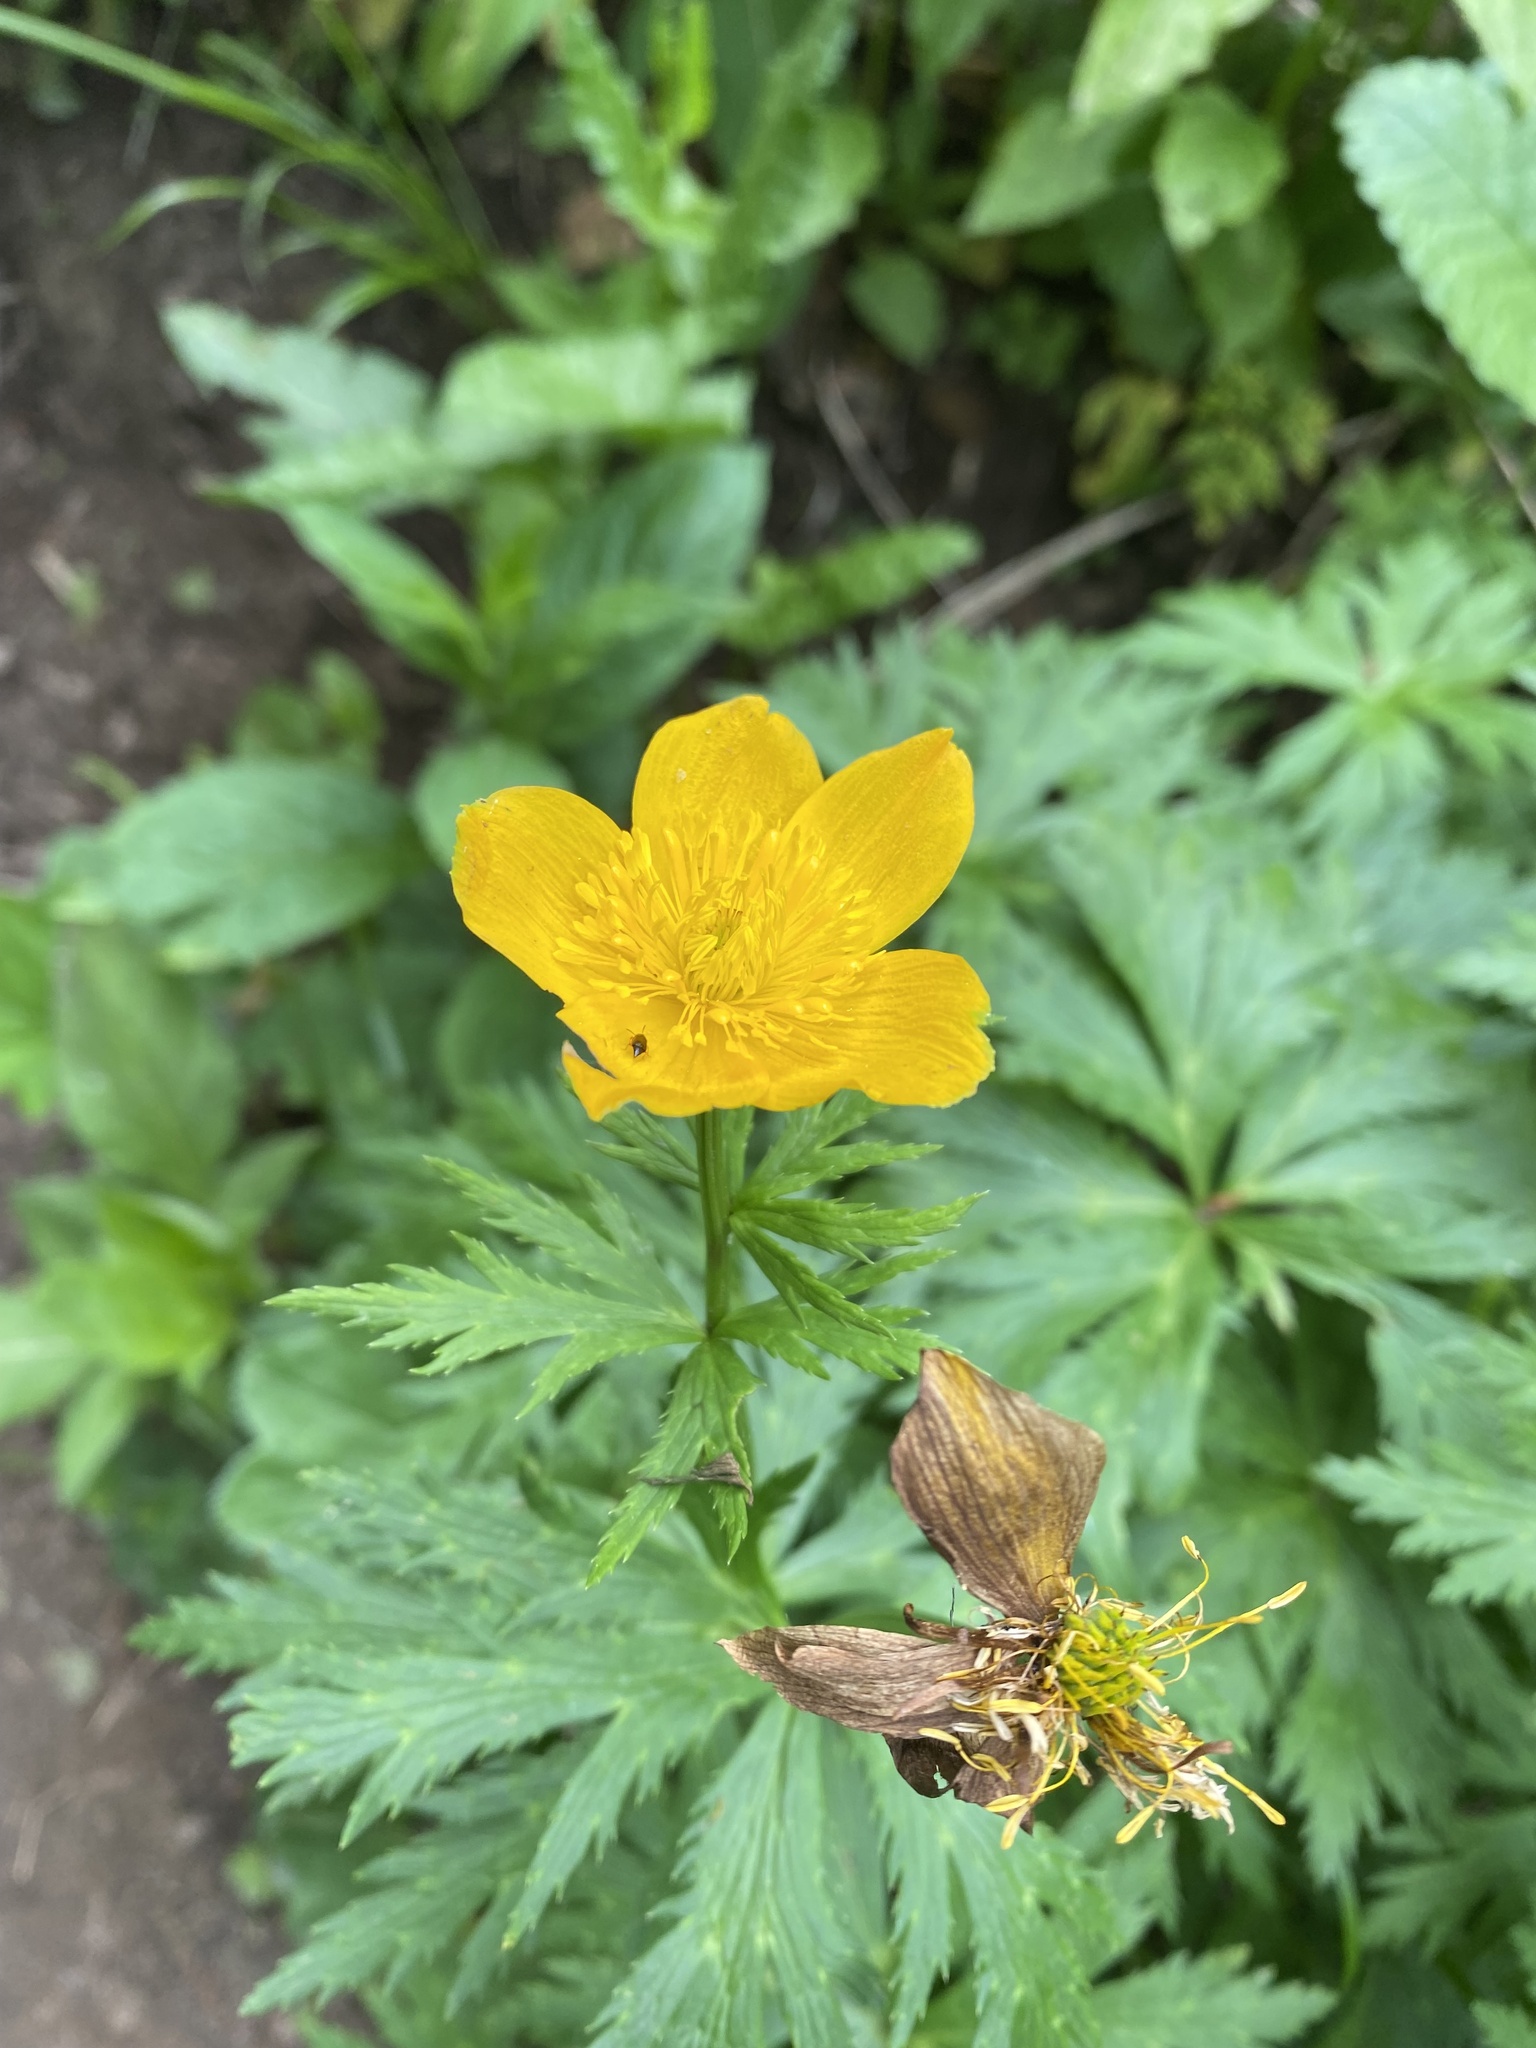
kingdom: Plantae
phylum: Tracheophyta
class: Magnoliopsida
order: Ranunculales
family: Ranunculaceae
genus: Trollius
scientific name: Trollius ranunculinus
